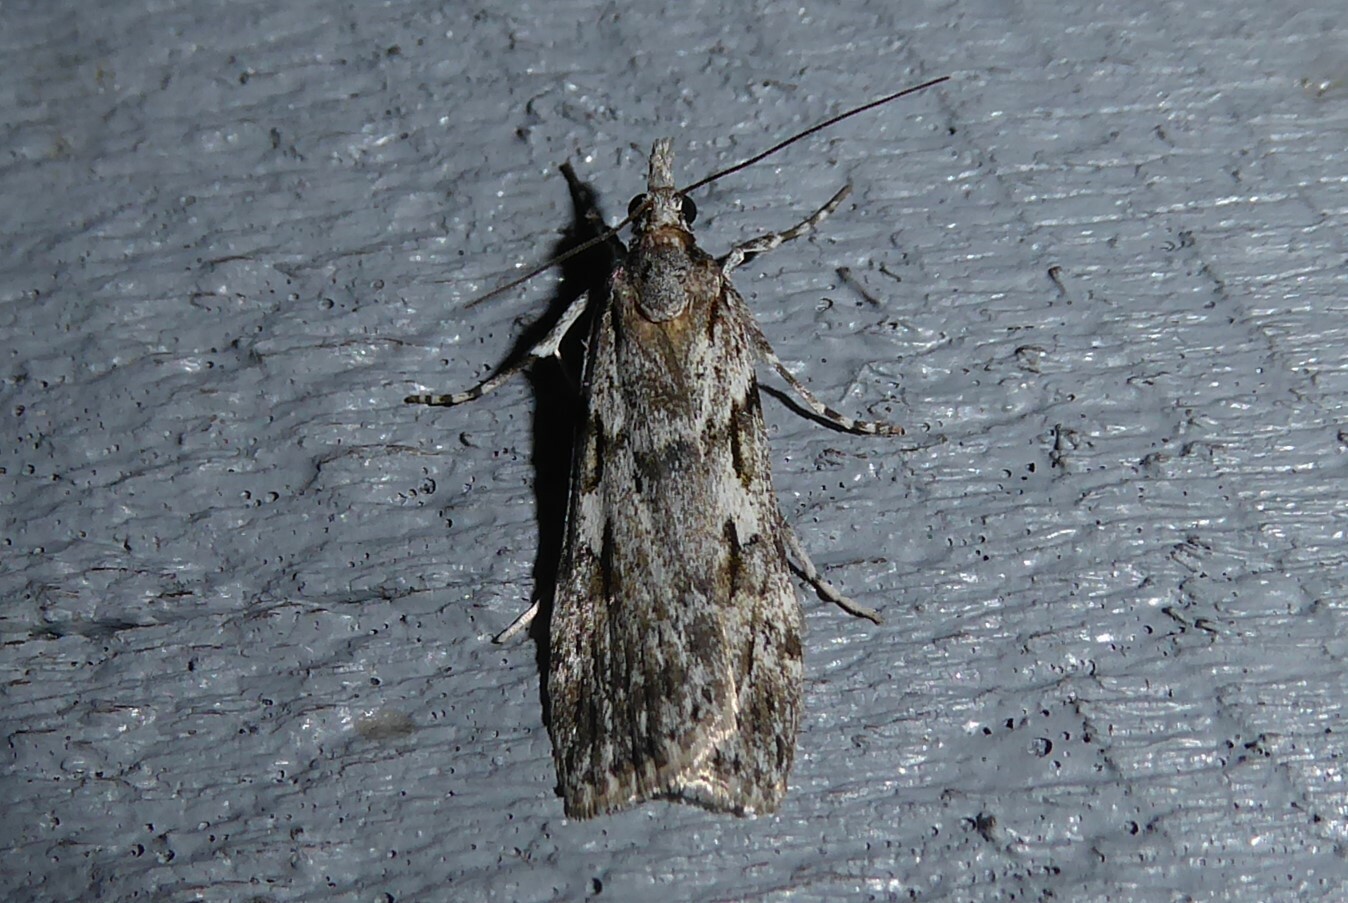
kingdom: Animalia
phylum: Arthropoda
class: Insecta
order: Lepidoptera
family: Crambidae
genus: Scoparia
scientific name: Scoparia halopis
